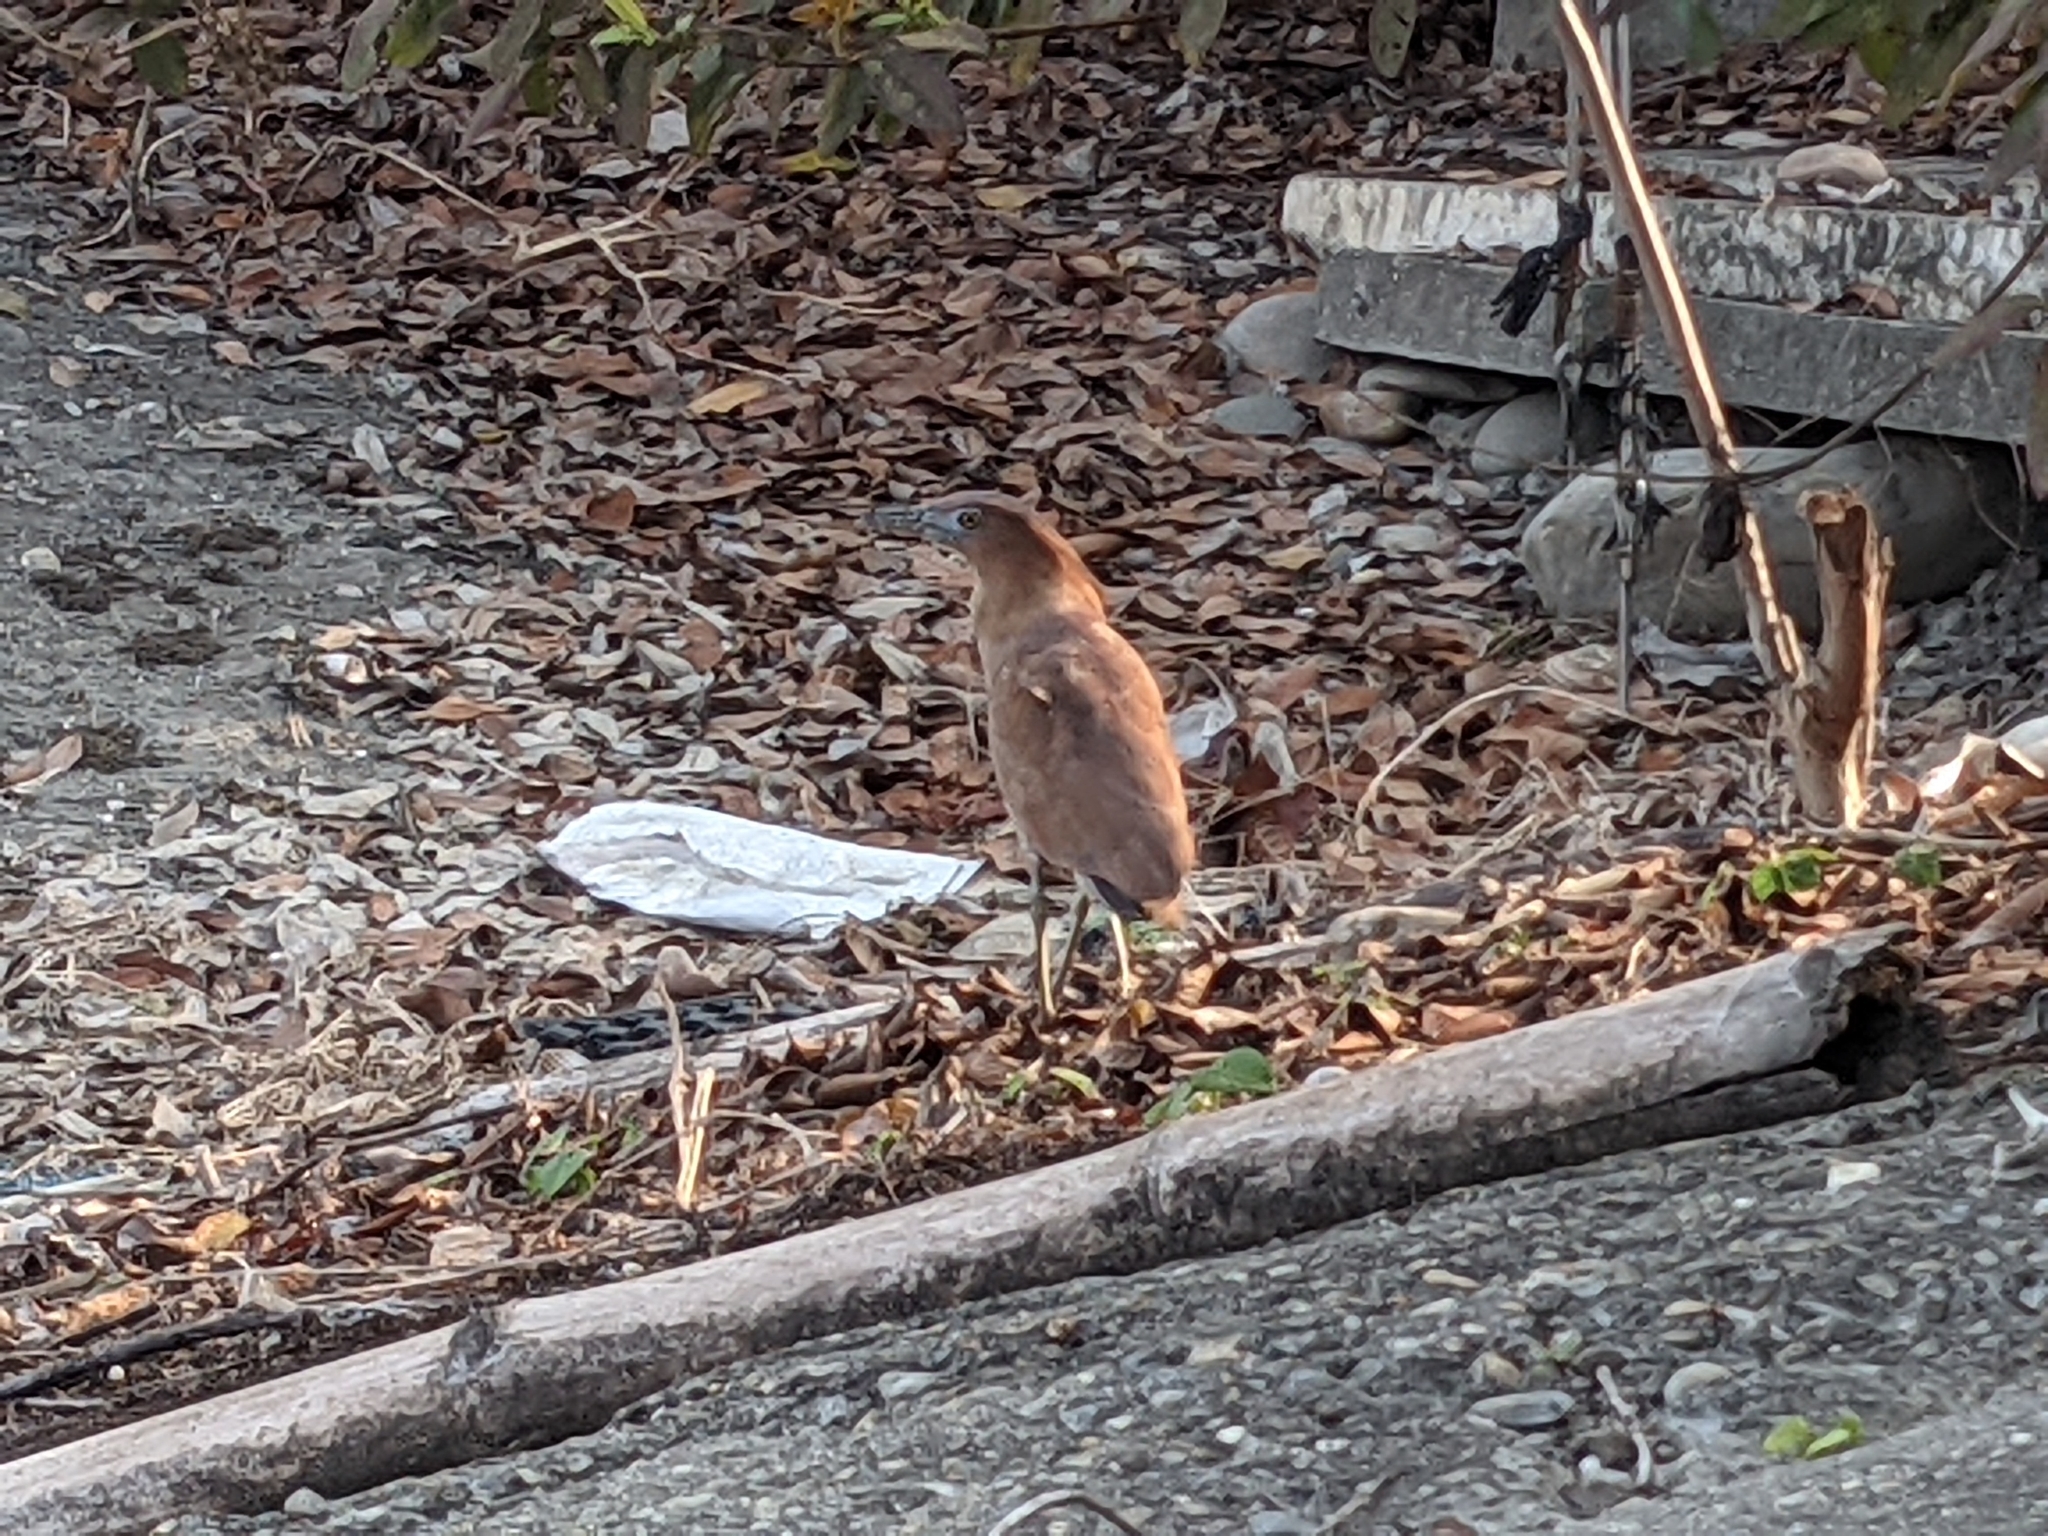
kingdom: Animalia
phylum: Chordata
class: Aves
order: Pelecaniformes
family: Ardeidae
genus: Gorsachius
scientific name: Gorsachius melanolophus
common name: Malayan night heron
